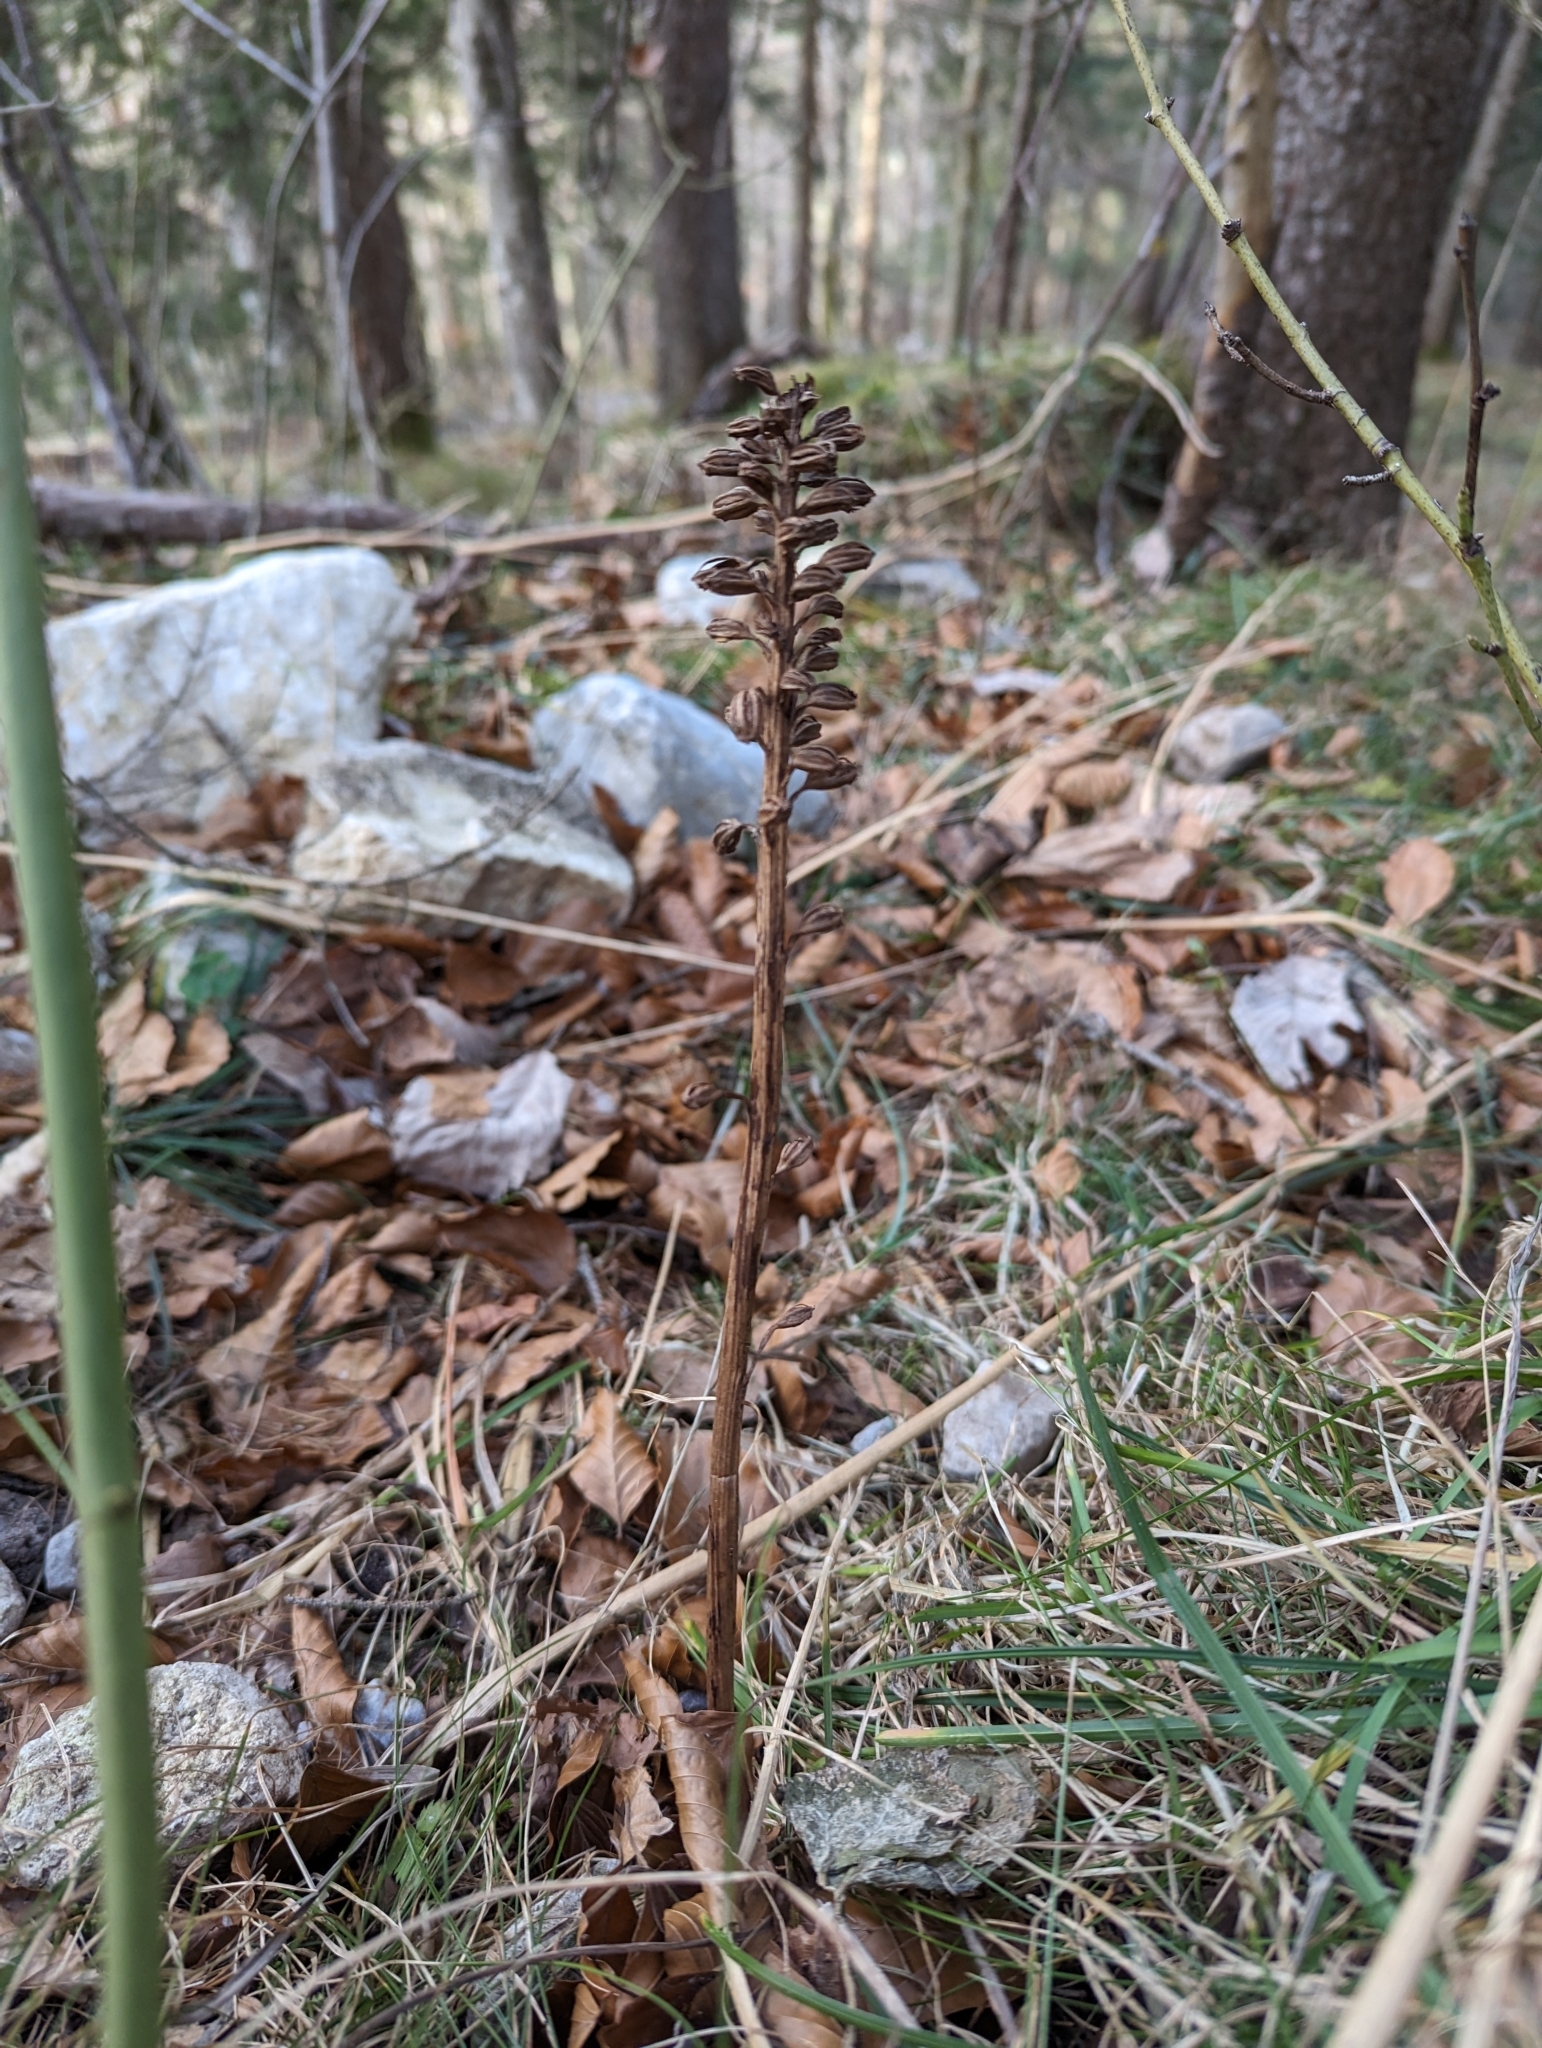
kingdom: Plantae
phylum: Tracheophyta
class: Liliopsida
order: Asparagales
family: Orchidaceae
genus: Neottia
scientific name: Neottia nidus-avis
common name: Bird's-nest orchid
